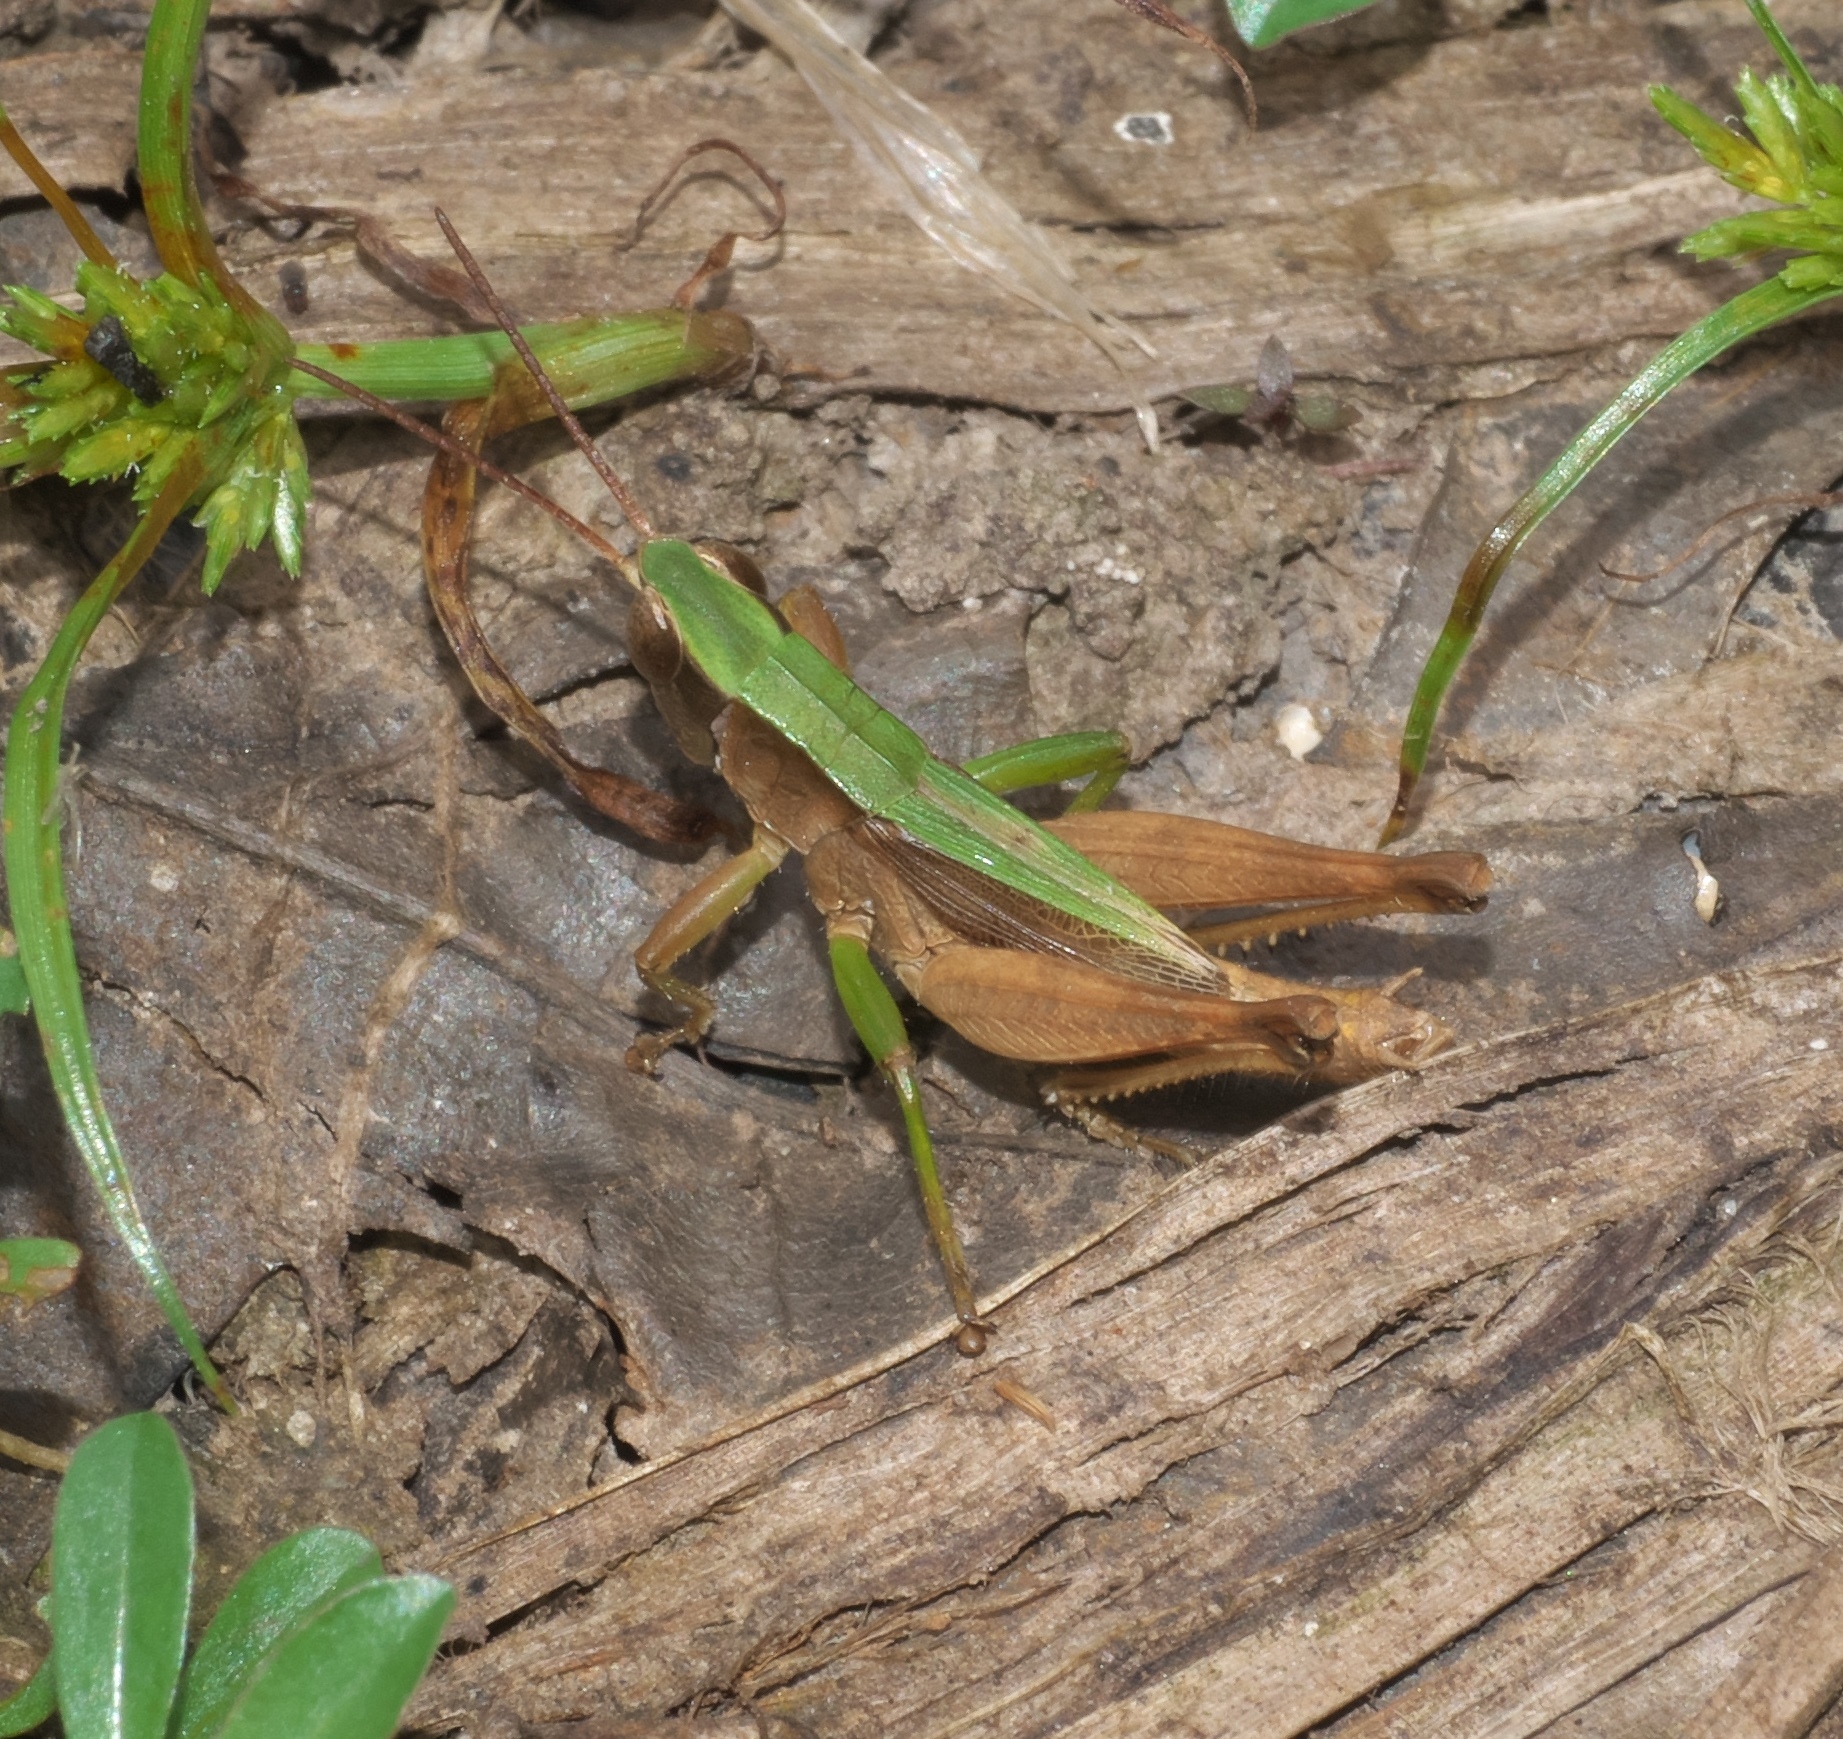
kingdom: Animalia
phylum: Arthropoda
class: Insecta
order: Orthoptera
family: Acrididae
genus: Dichromorpha
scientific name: Dichromorpha viridis
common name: Short-winged green grasshopper
